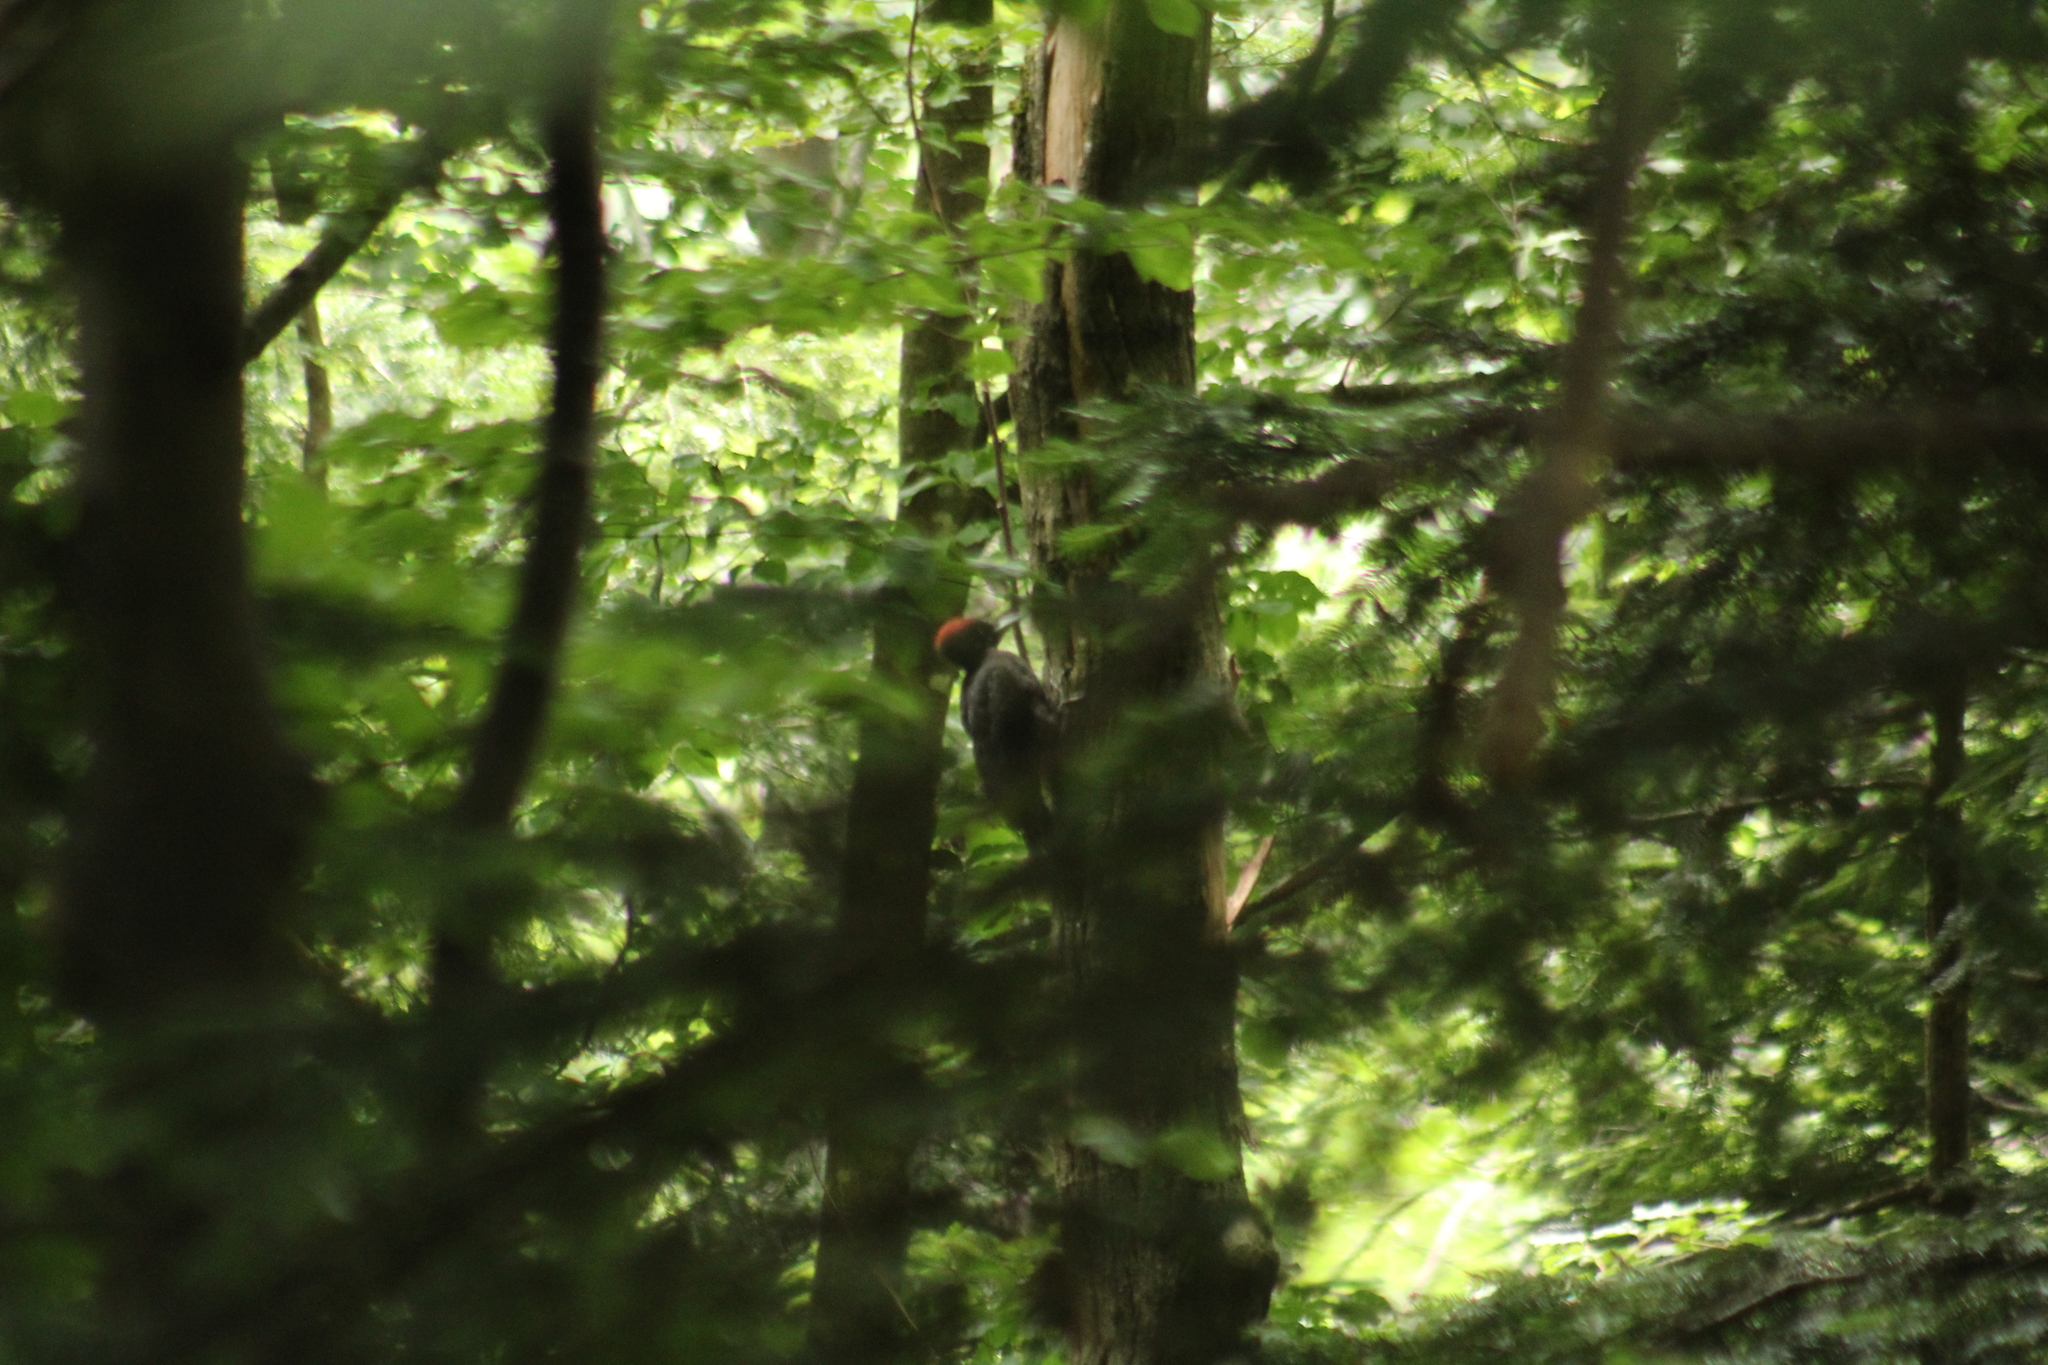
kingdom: Animalia
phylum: Chordata
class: Aves
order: Piciformes
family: Picidae
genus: Dryocopus
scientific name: Dryocopus martius
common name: Black woodpecker
